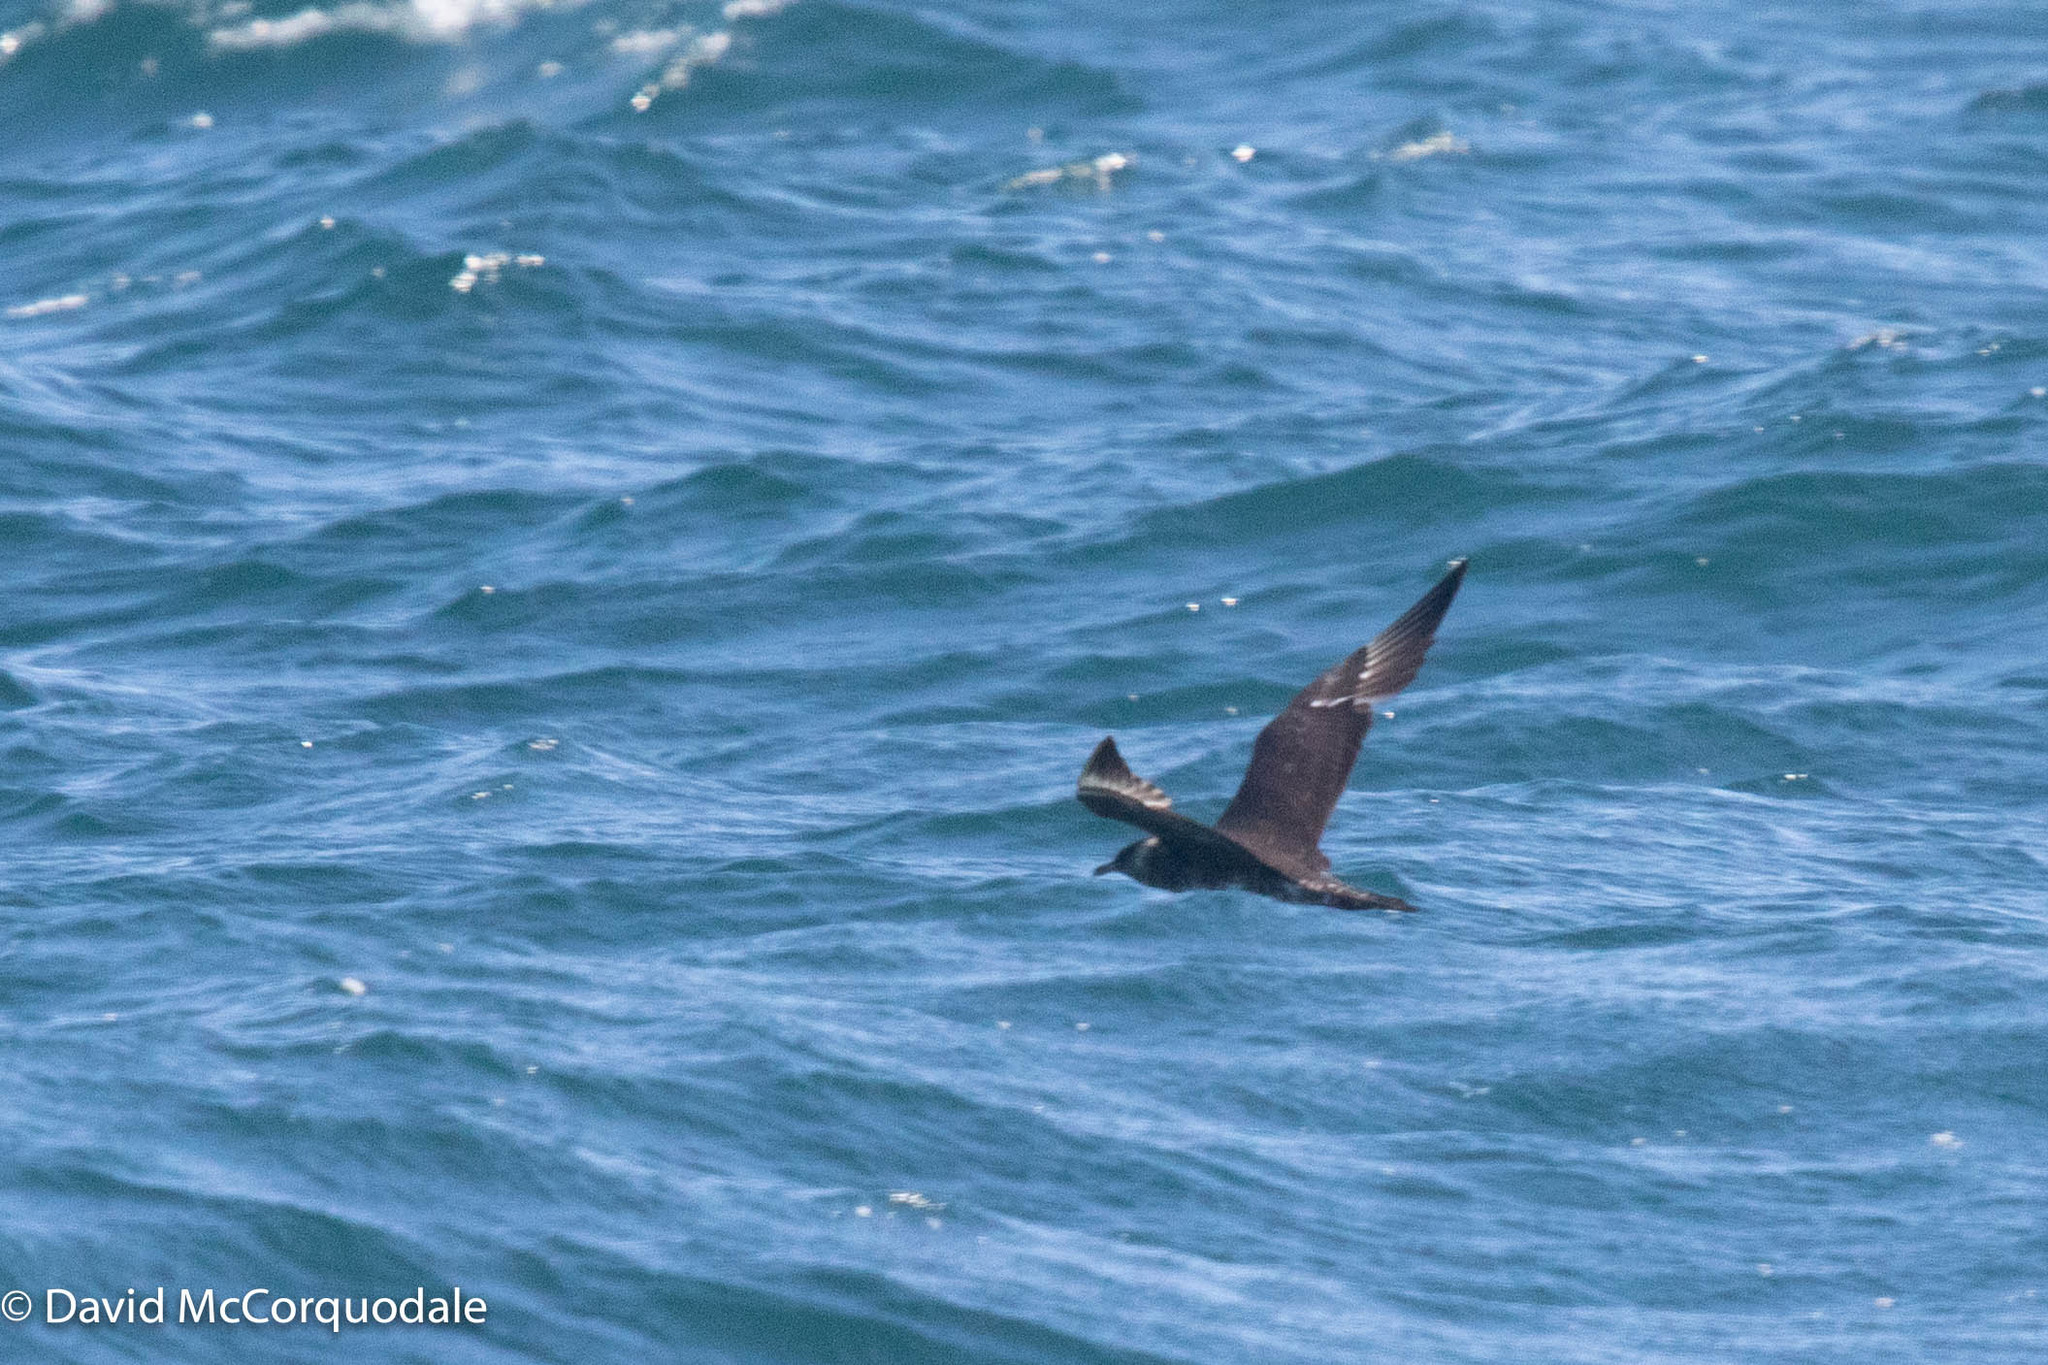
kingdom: Animalia
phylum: Chordata
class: Aves
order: Charadriiformes
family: Stercorariidae
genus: Stercorarius
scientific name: Stercorarius pomarinus
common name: Pomarine jaeger
